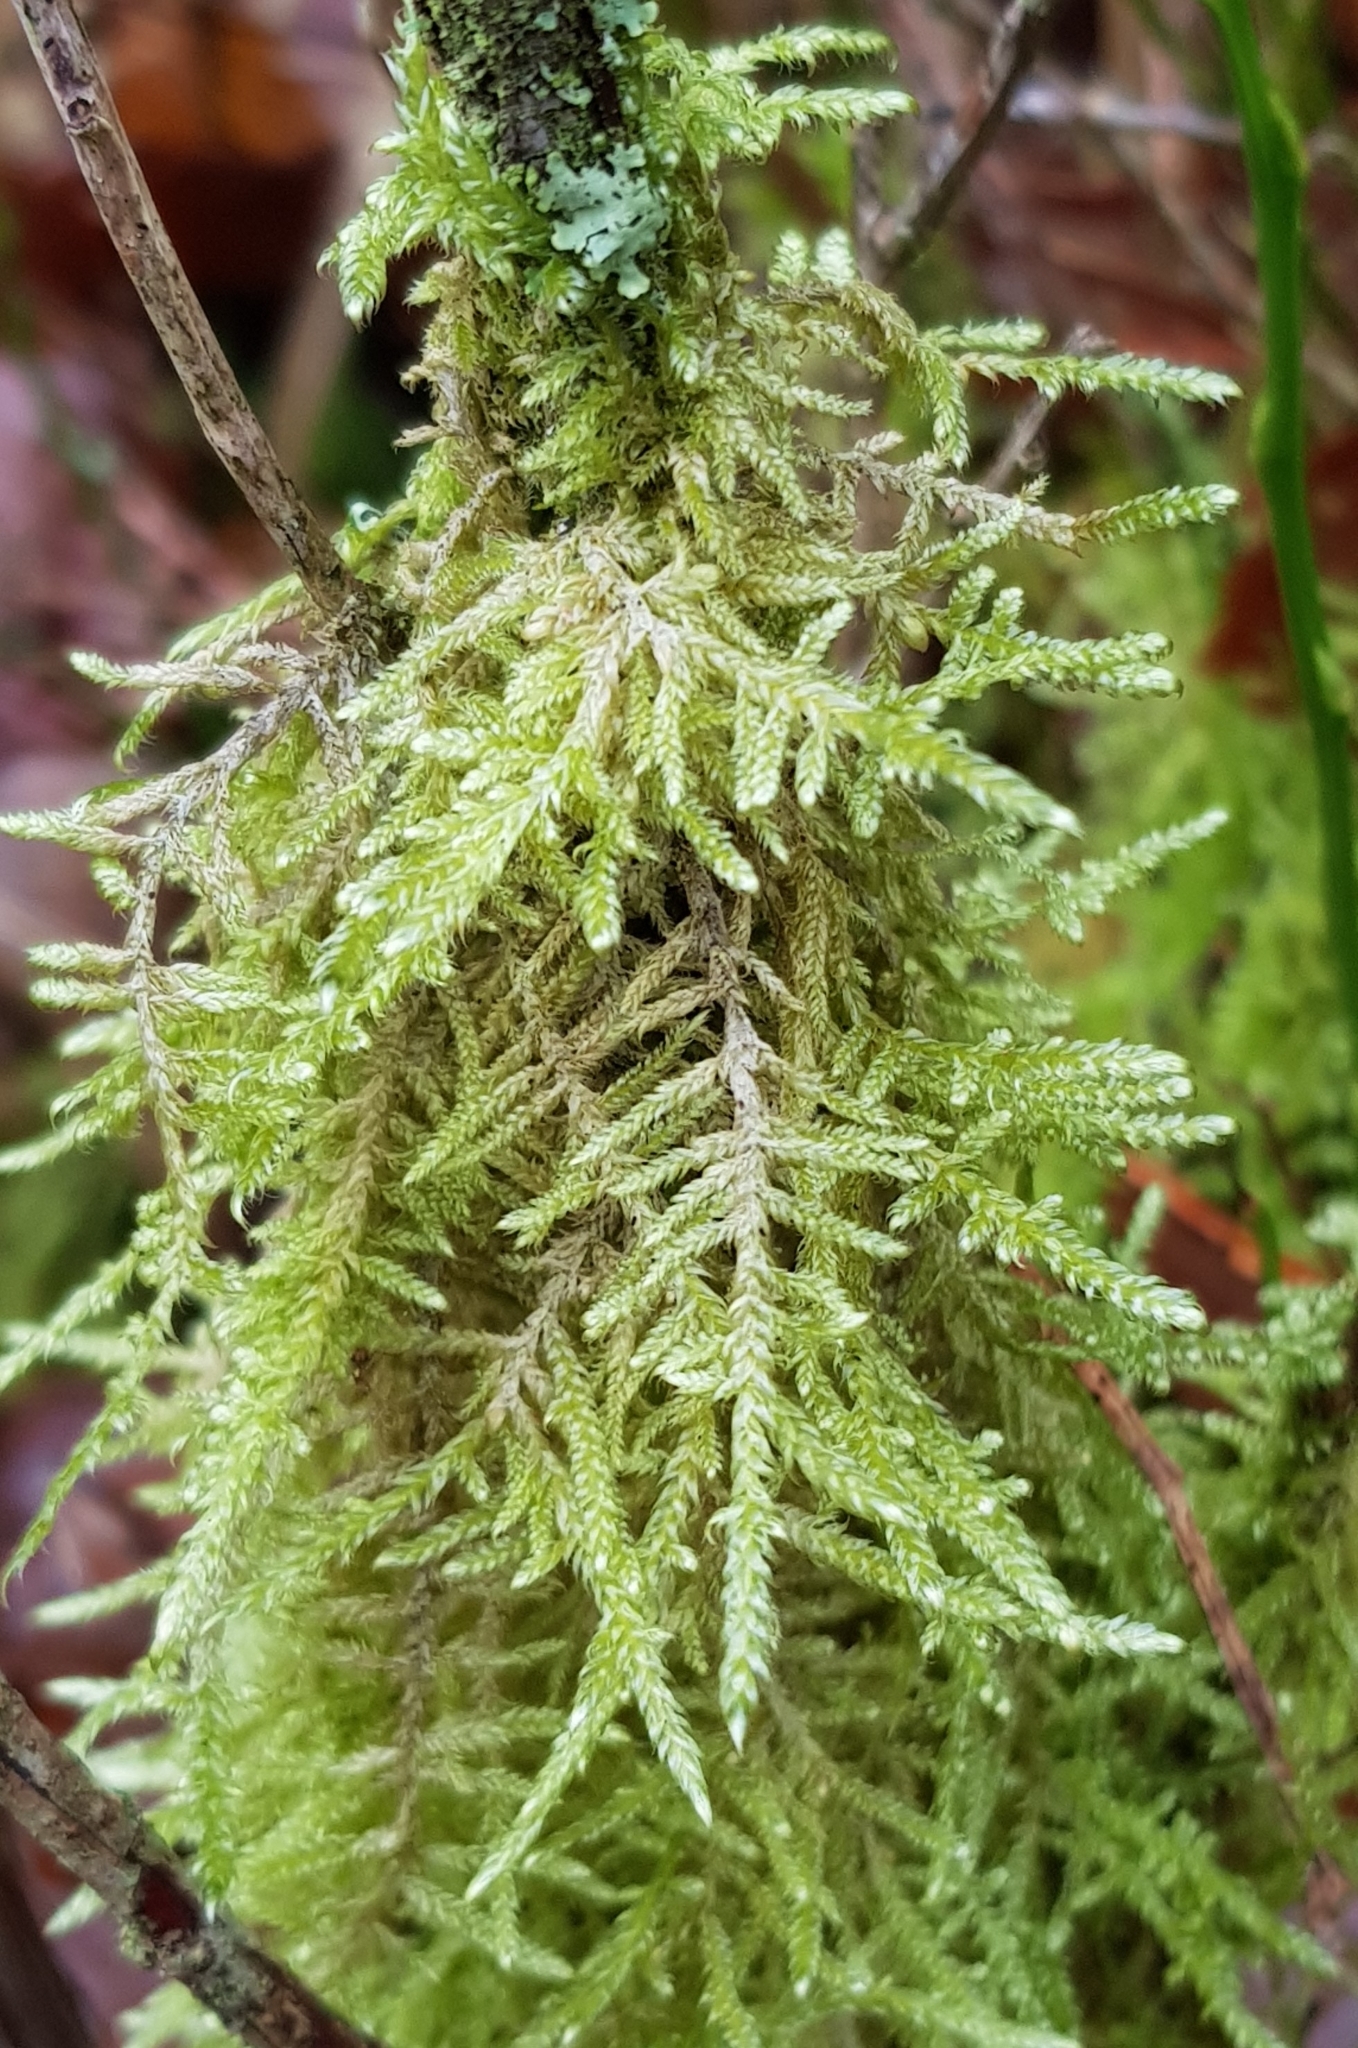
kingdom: Plantae
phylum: Bryophyta
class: Bryopsida
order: Hypnales
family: Hypnaceae
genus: Hypnum
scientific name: Hypnum jutlandicum
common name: Heath plait-moss
